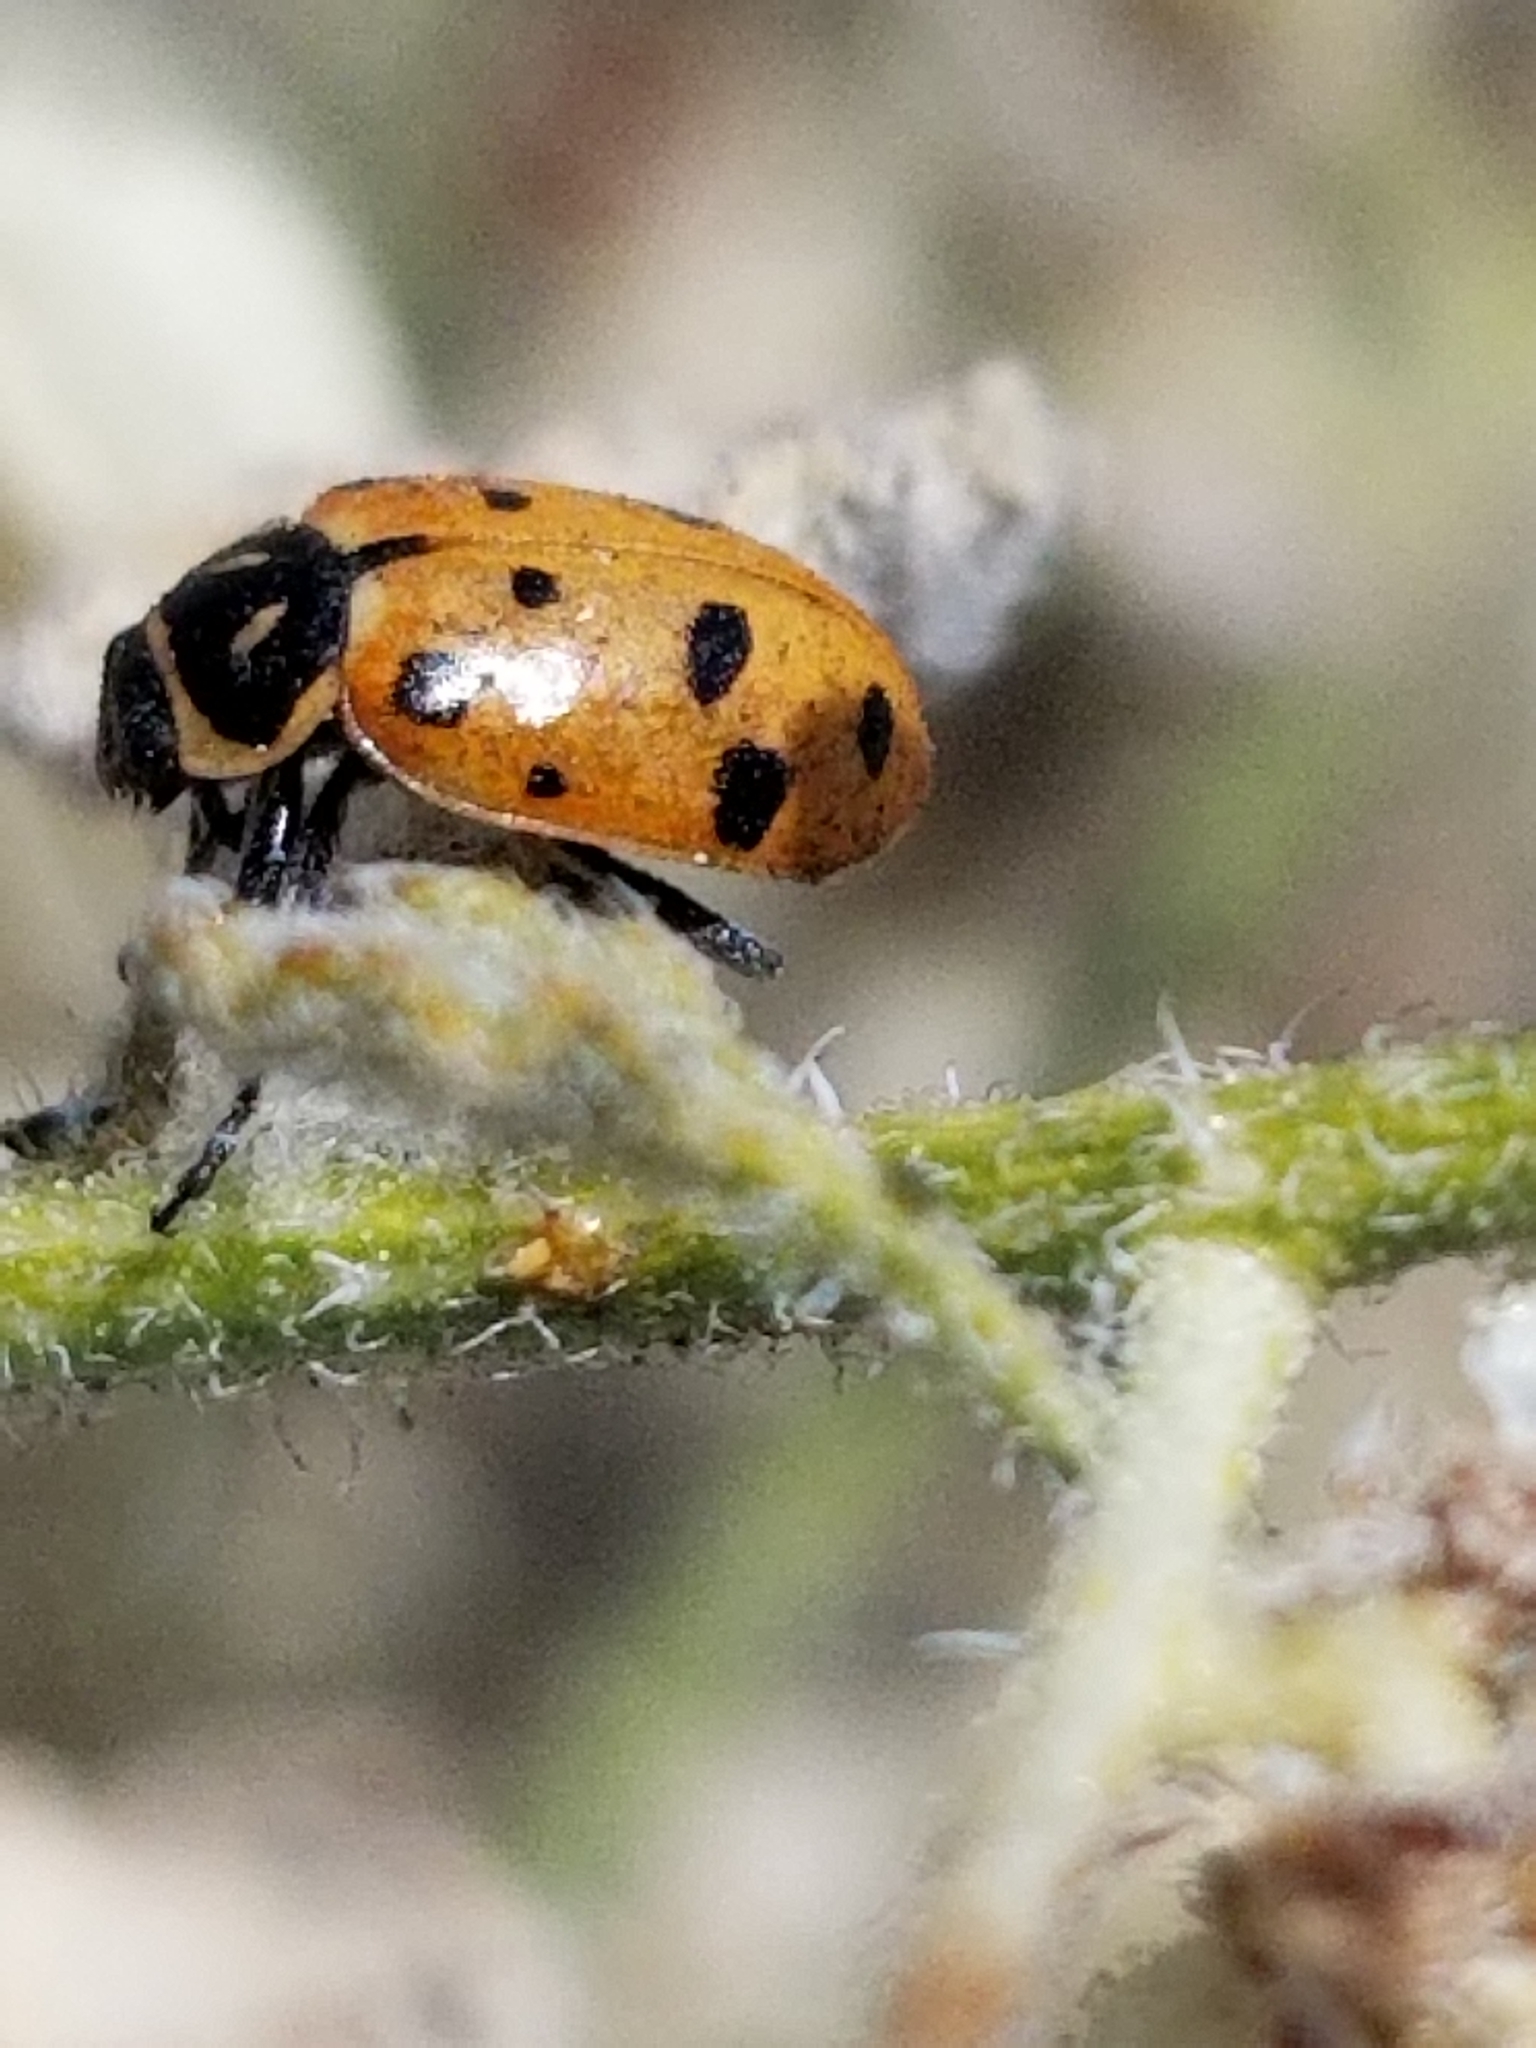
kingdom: Animalia
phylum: Arthropoda
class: Insecta
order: Coleoptera
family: Coccinellidae
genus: Hippodamia
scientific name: Hippodamia convergens
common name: Convergent lady beetle
